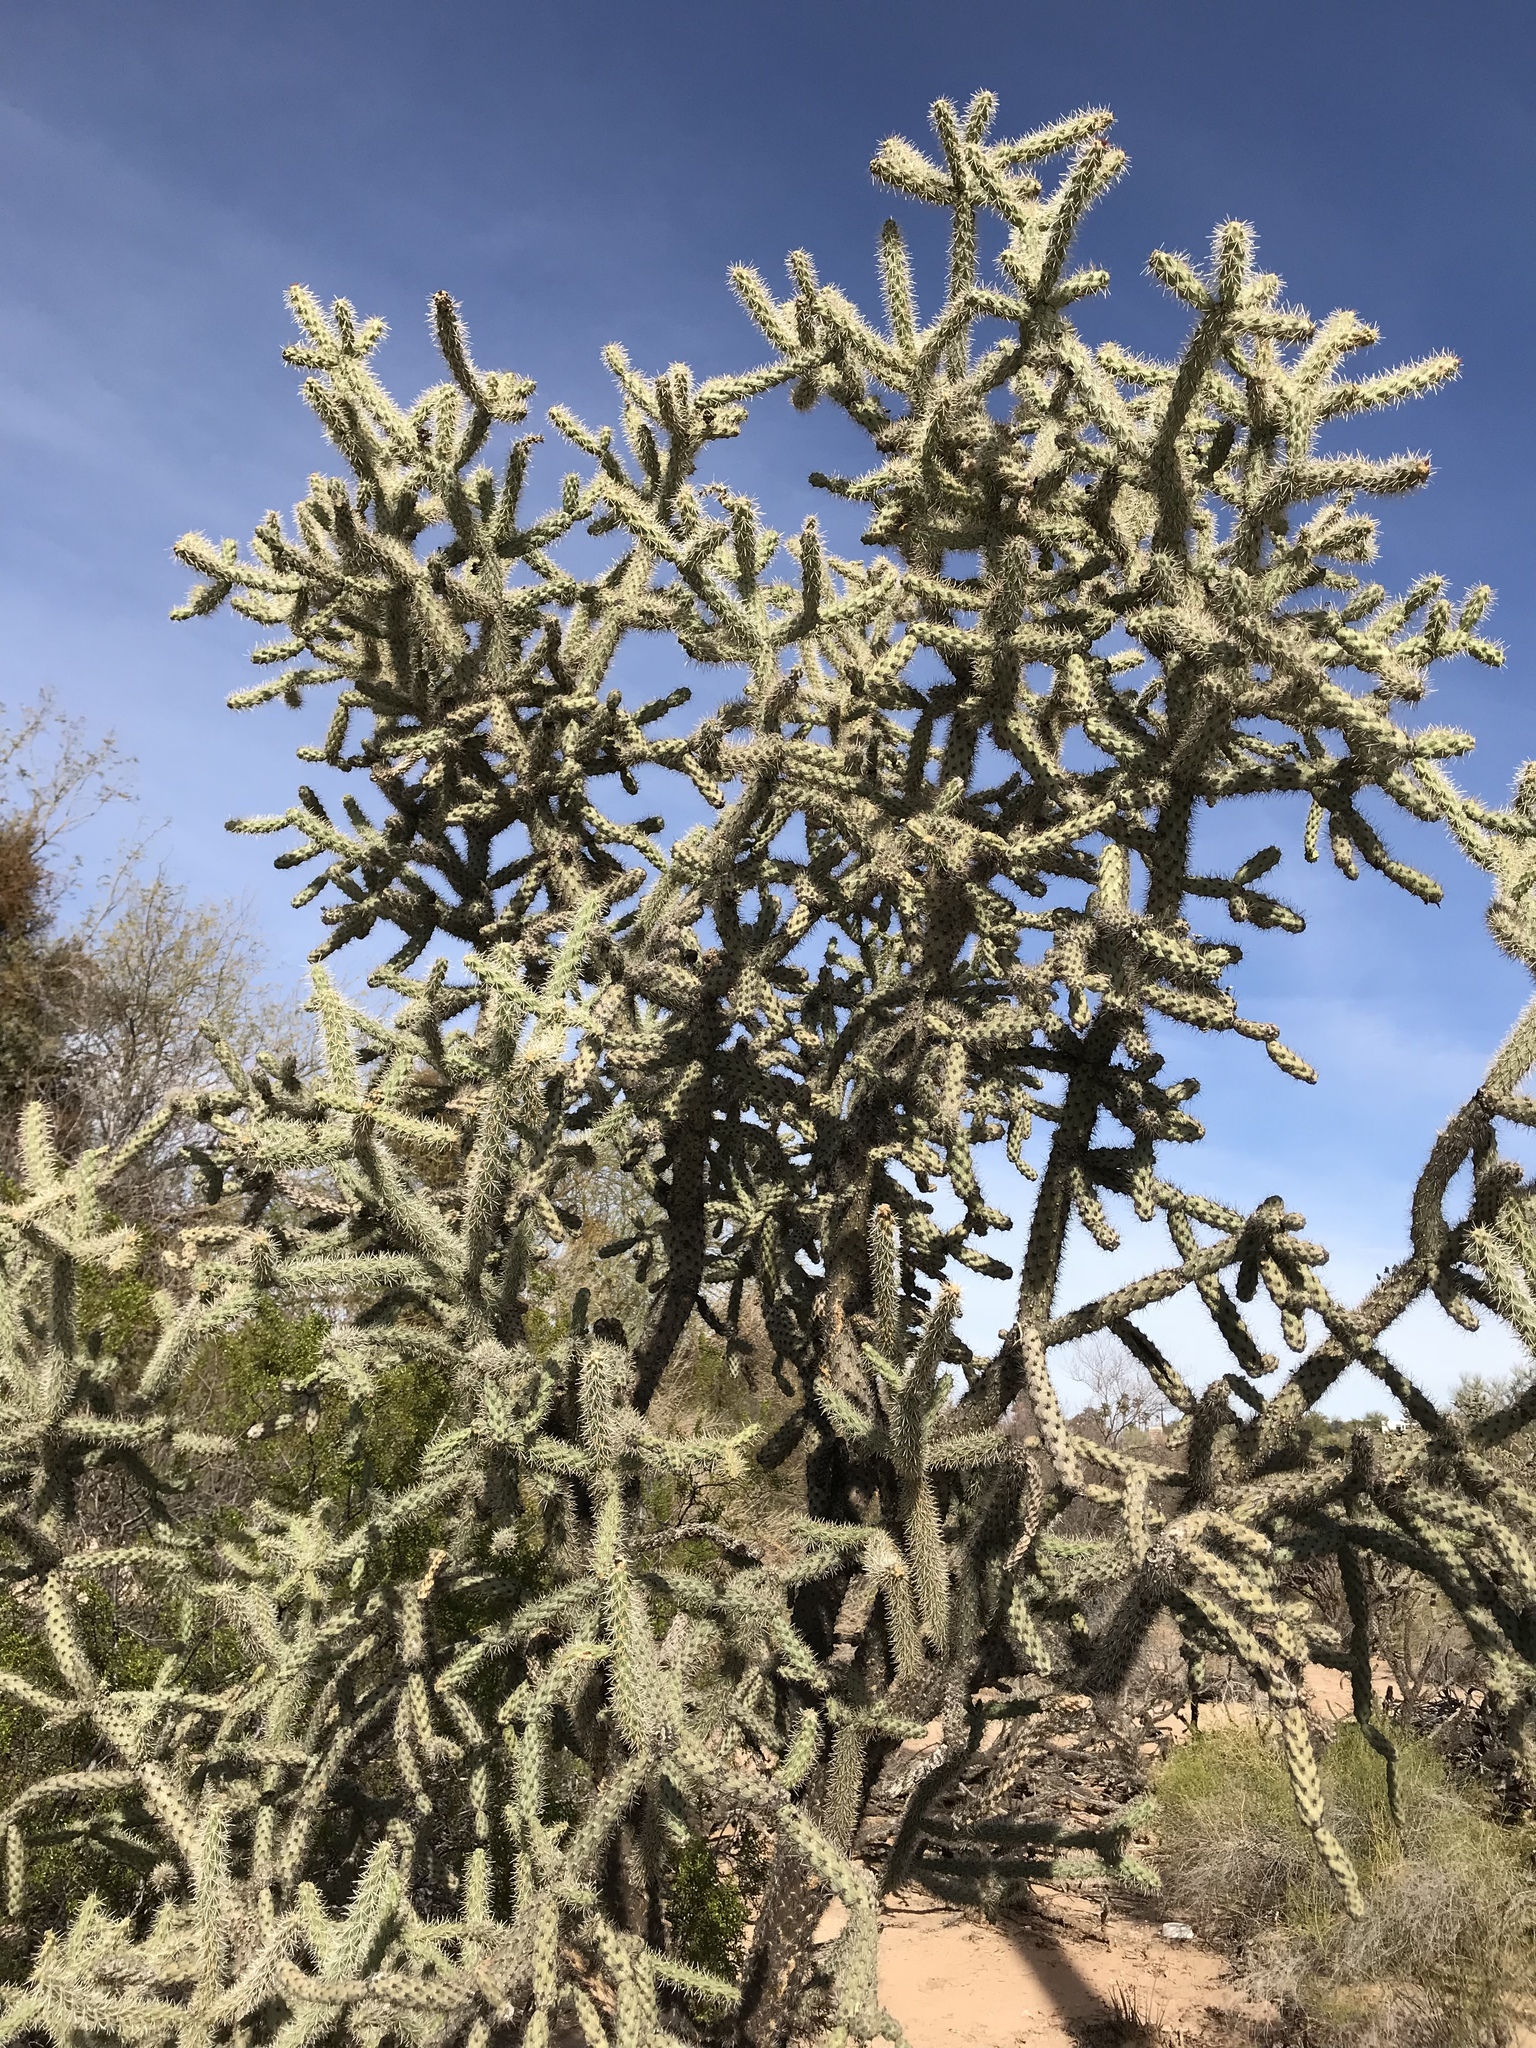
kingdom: Plantae
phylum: Tracheophyta
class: Magnoliopsida
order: Caryophyllales
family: Cactaceae
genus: Cylindropuntia
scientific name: Cylindropuntia imbricata
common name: Candelabrum cactus
